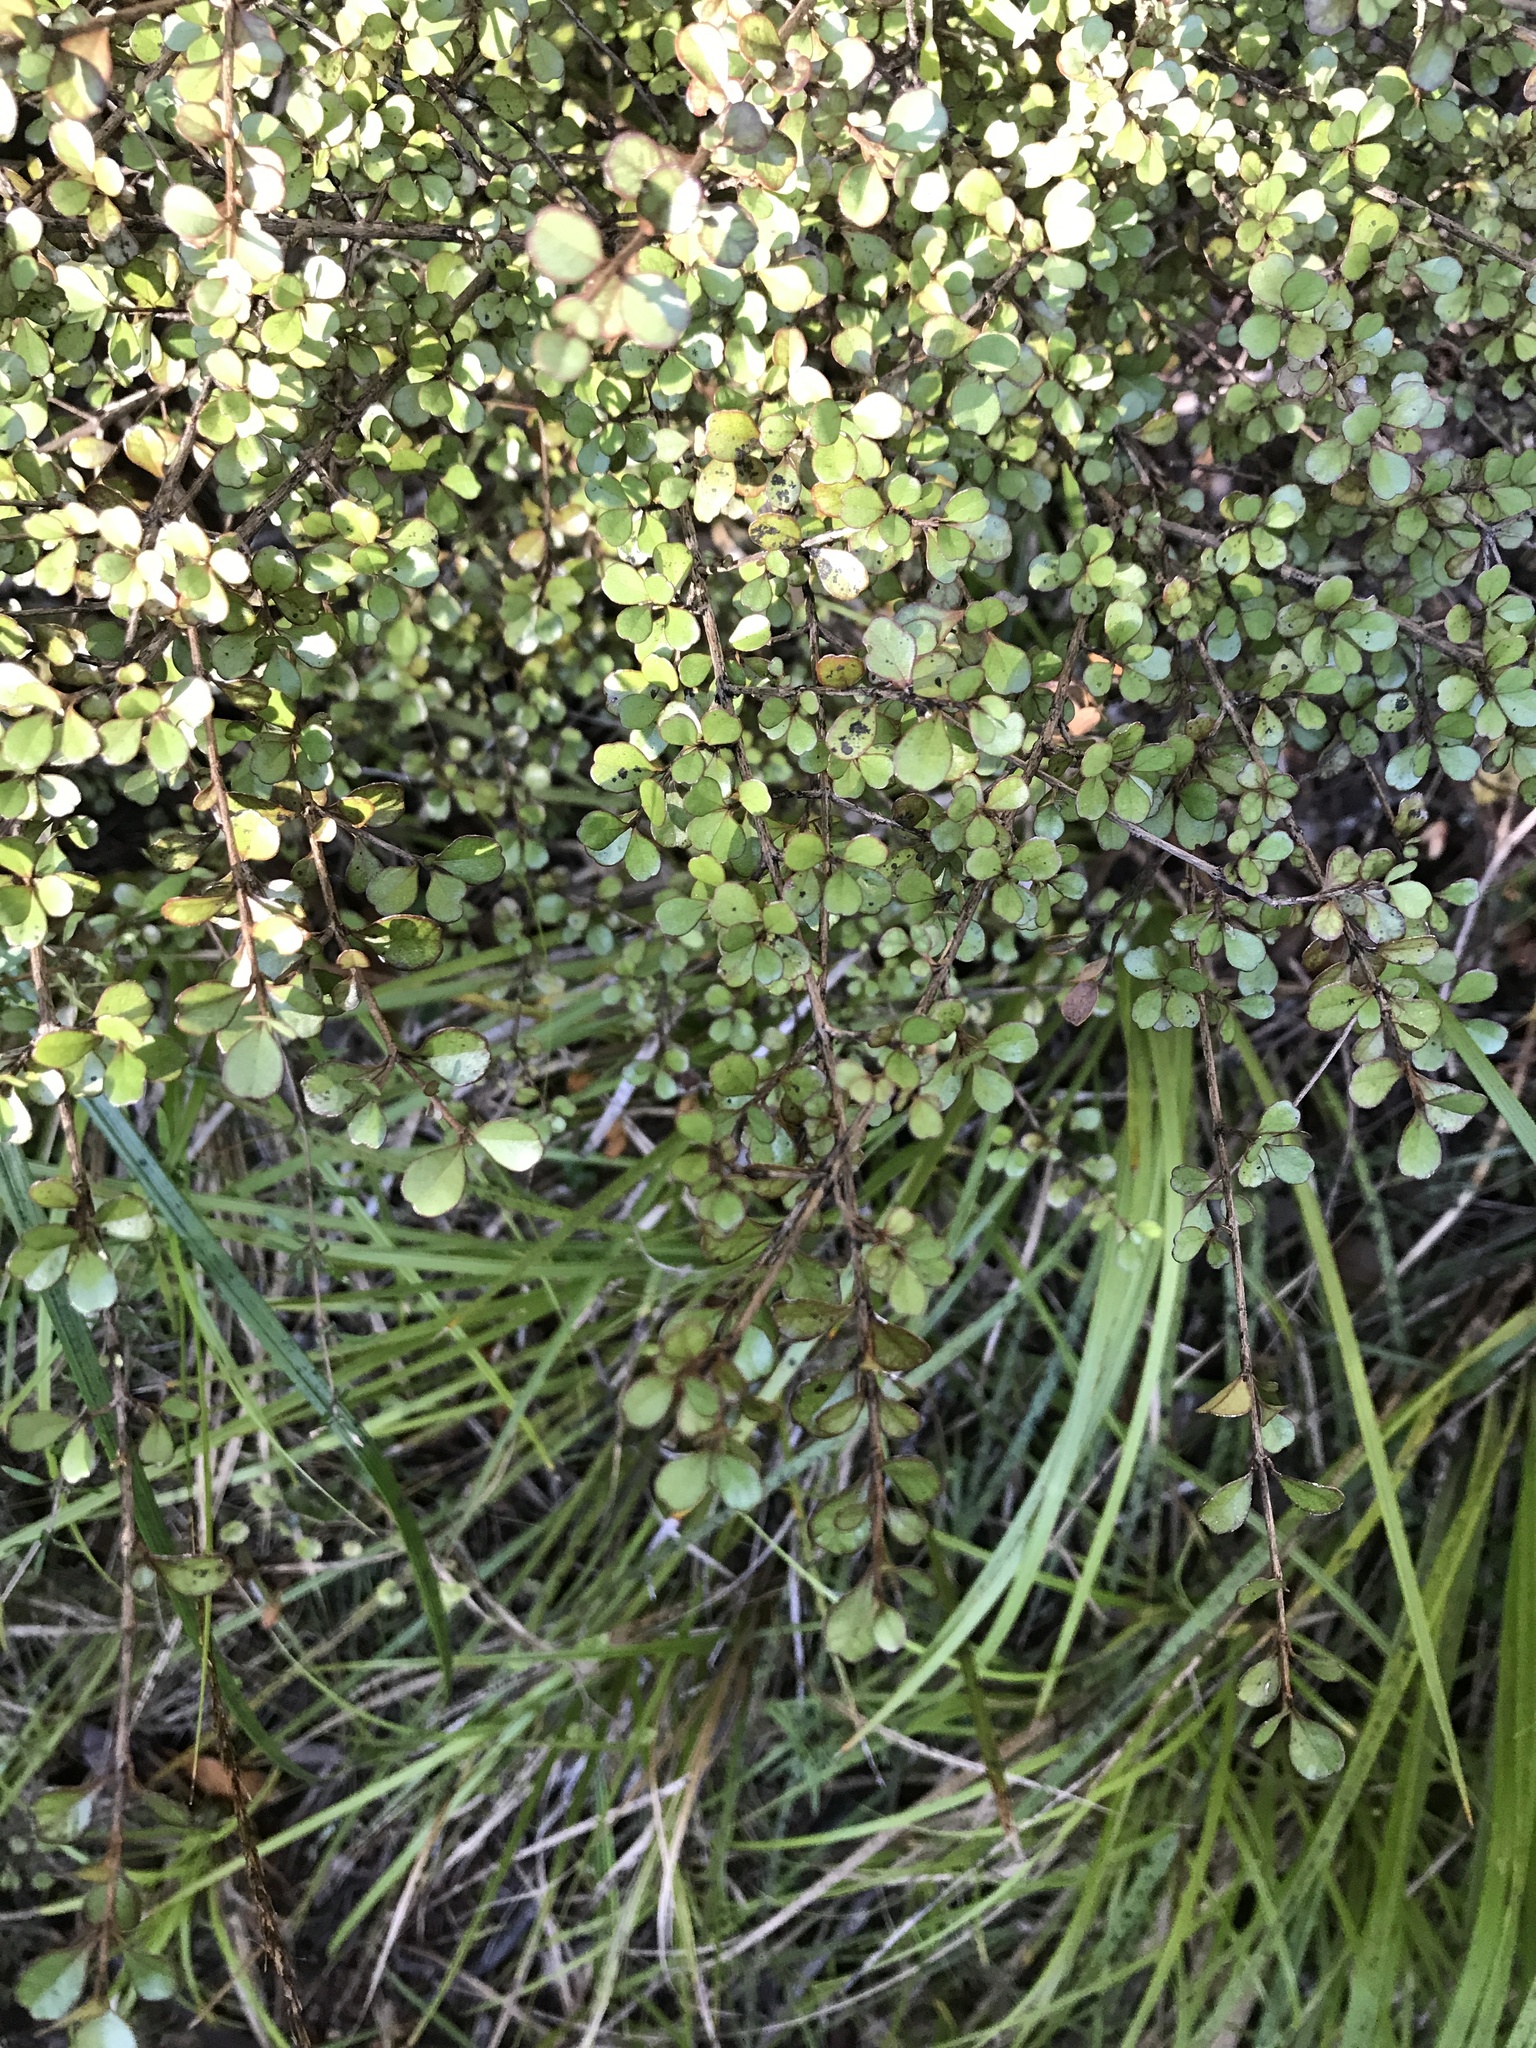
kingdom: Plantae
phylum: Tracheophyta
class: Magnoliopsida
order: Myrtales
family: Myrtaceae
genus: Lophomyrtus
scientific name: Lophomyrtus obcordata
